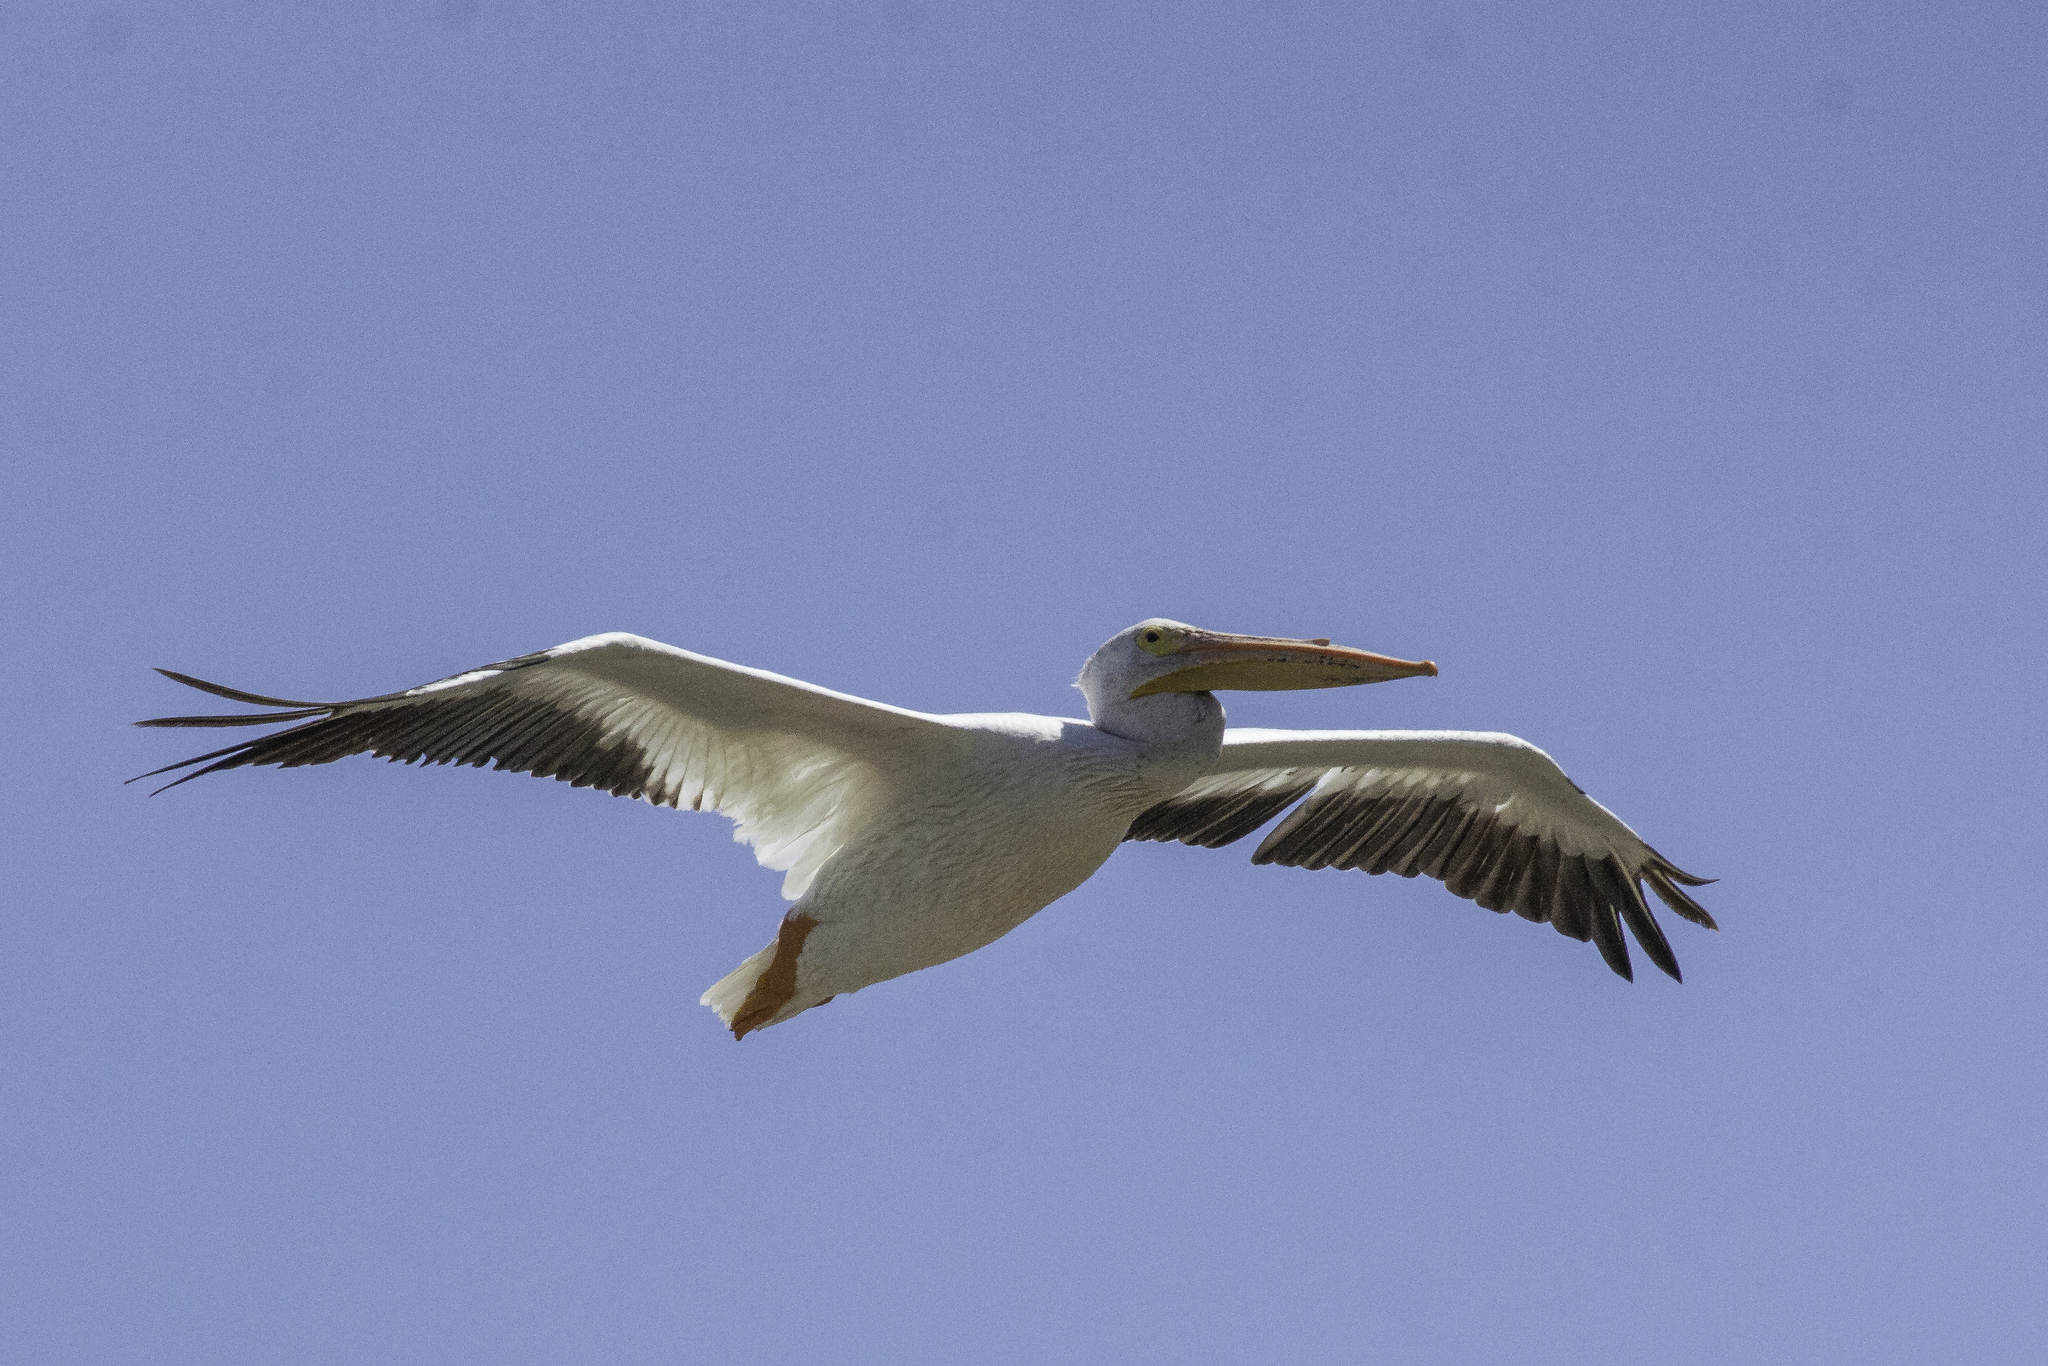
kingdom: Animalia
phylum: Chordata
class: Aves
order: Pelecaniformes
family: Pelecanidae
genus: Pelecanus
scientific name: Pelecanus erythrorhynchos
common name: American white pelican
